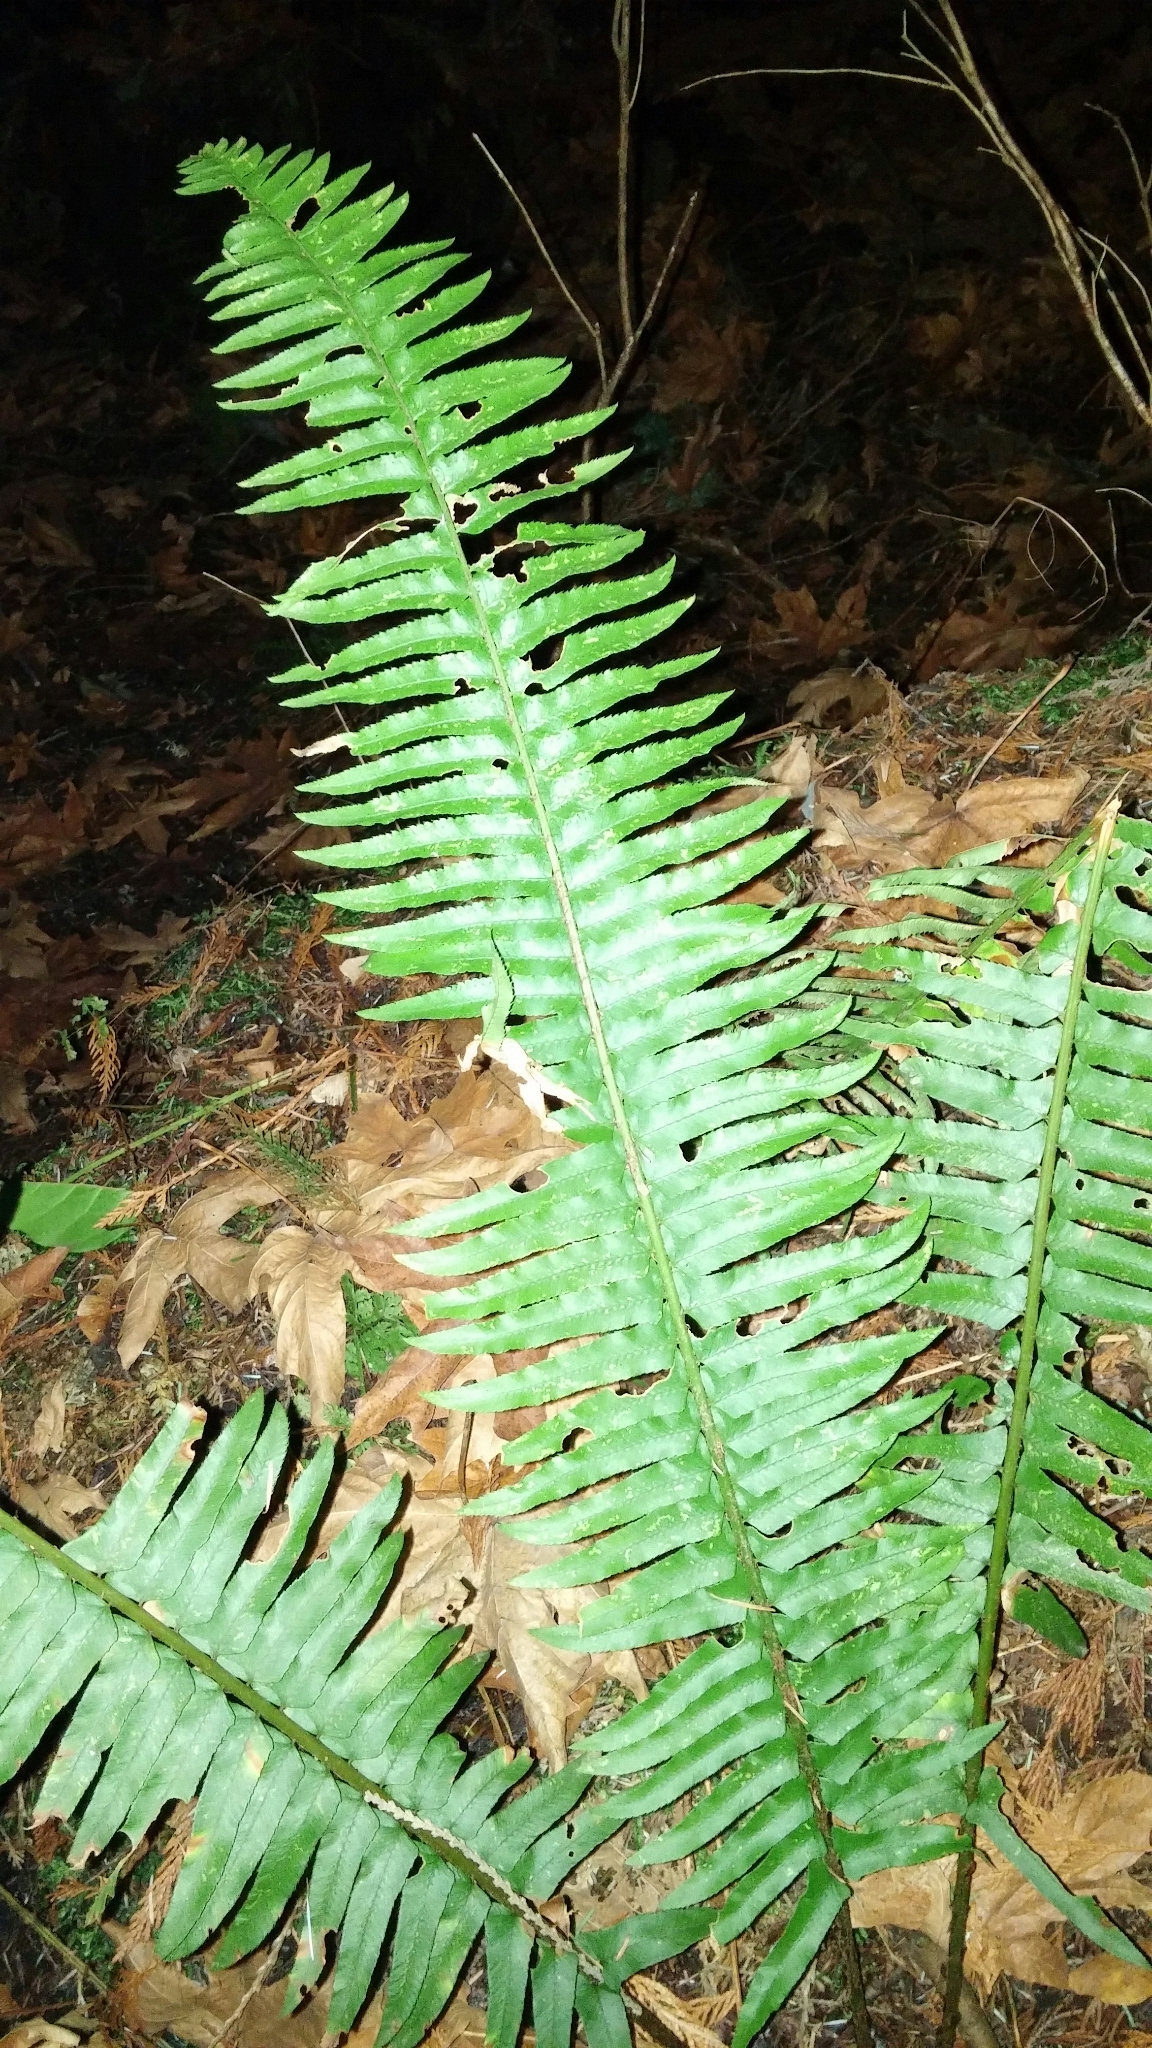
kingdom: Plantae
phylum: Tracheophyta
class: Polypodiopsida
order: Polypodiales
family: Dryopteridaceae
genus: Polystichum
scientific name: Polystichum munitum
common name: Western sword-fern
